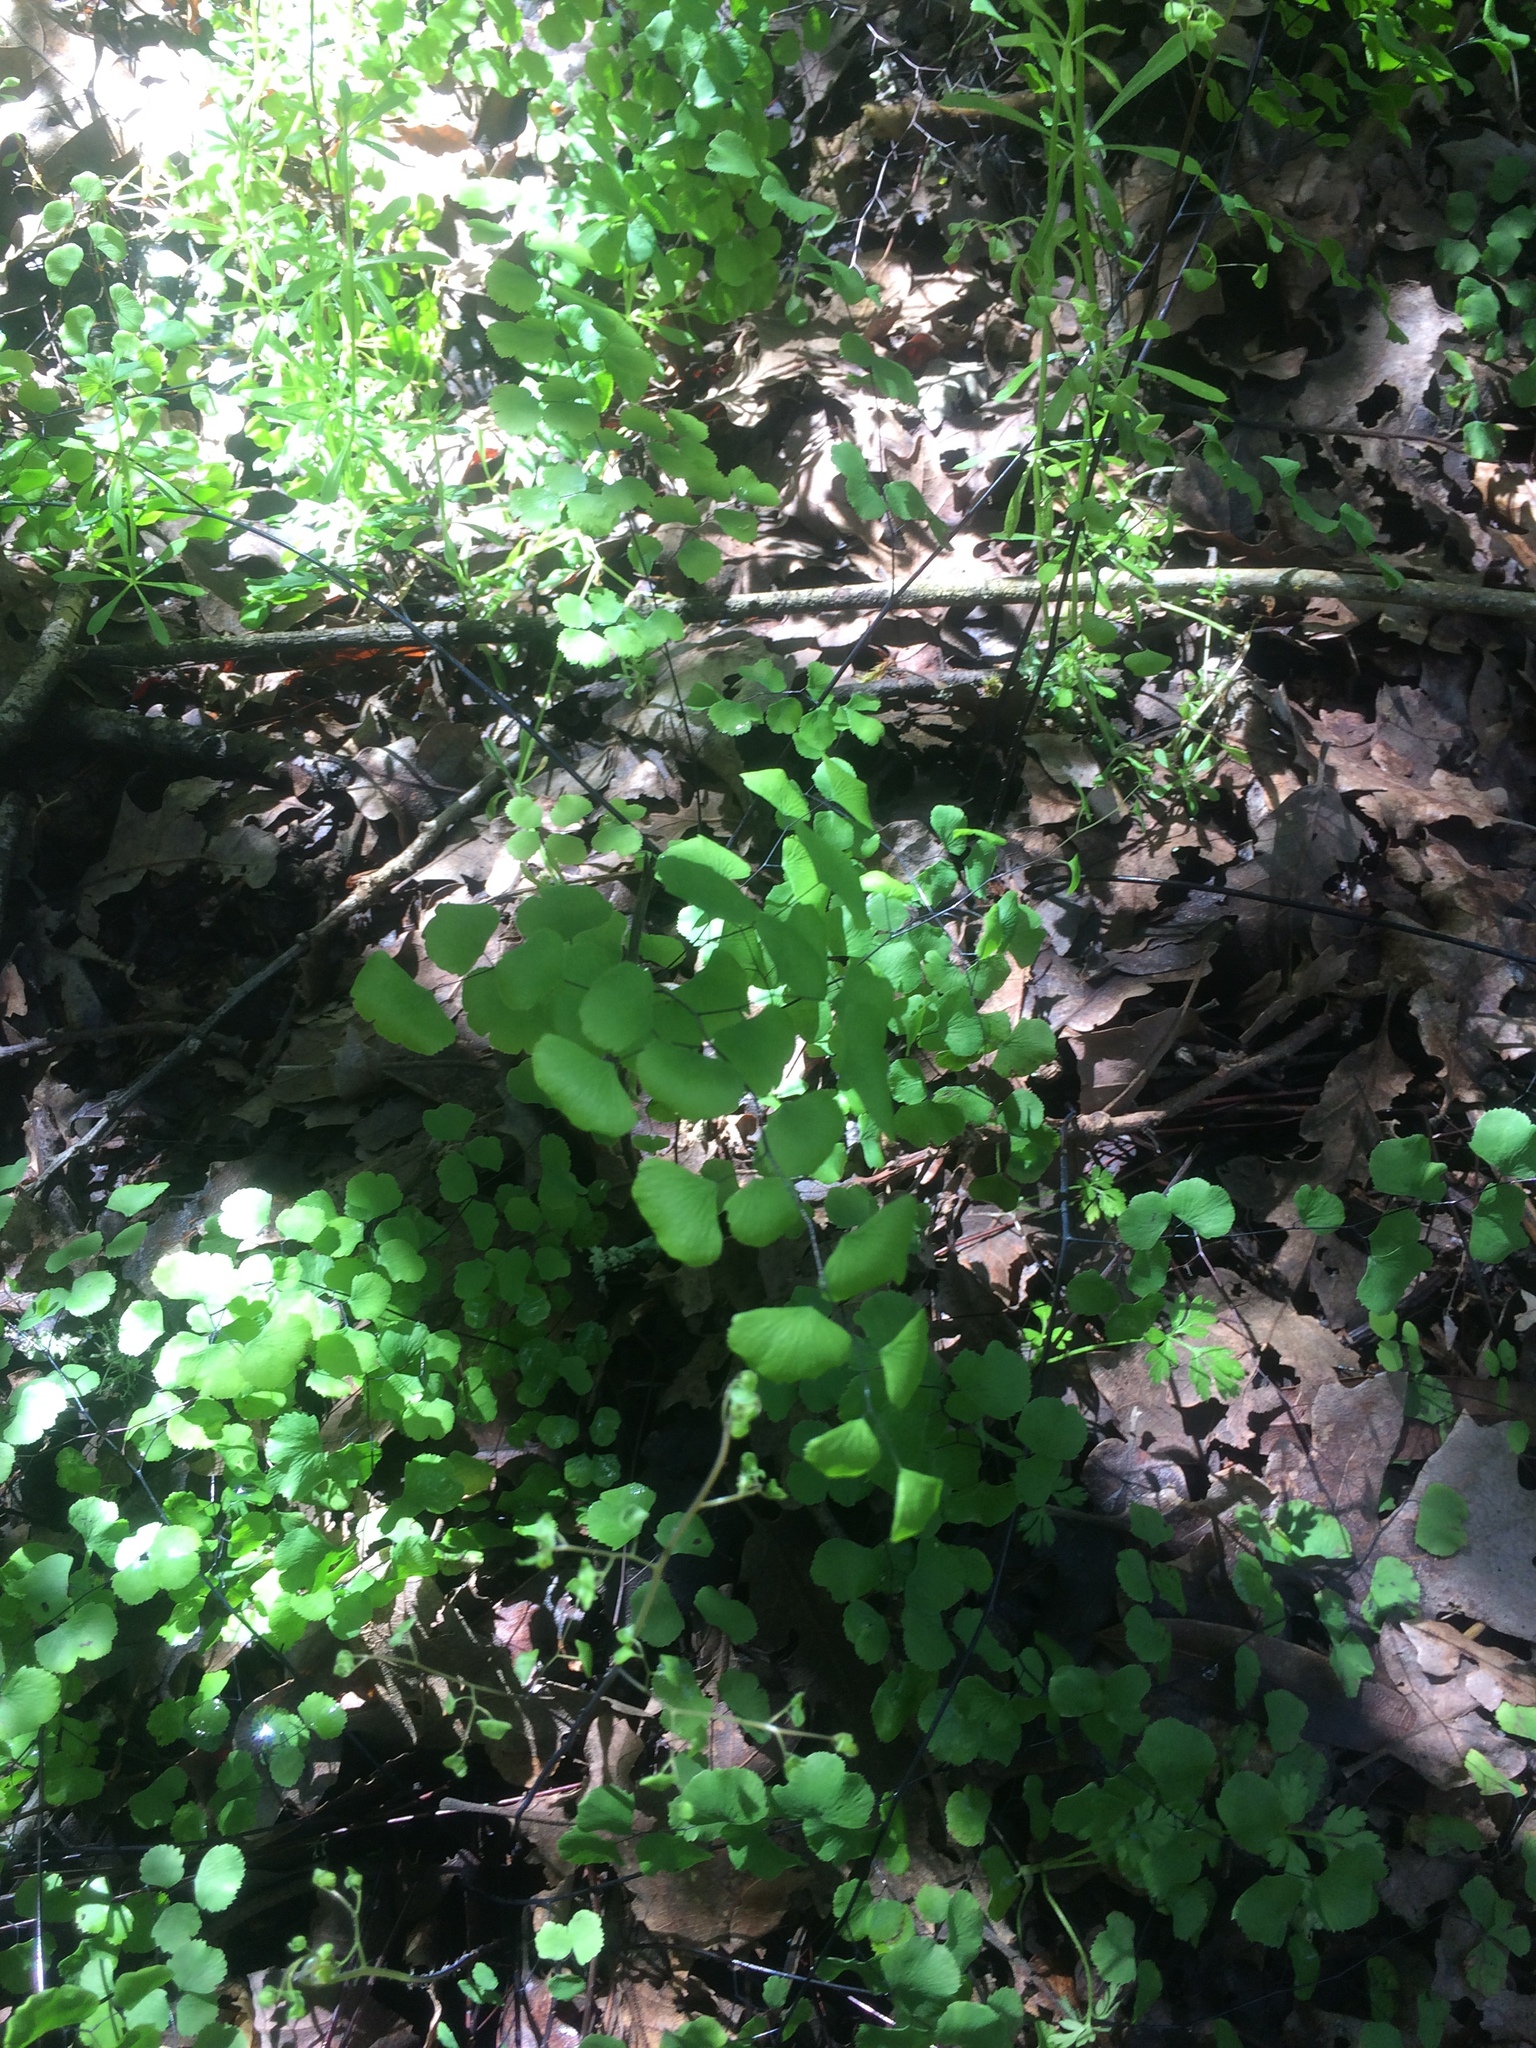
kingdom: Plantae
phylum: Tracheophyta
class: Polypodiopsida
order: Polypodiales
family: Pteridaceae
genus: Adiantum
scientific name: Adiantum jordanii
